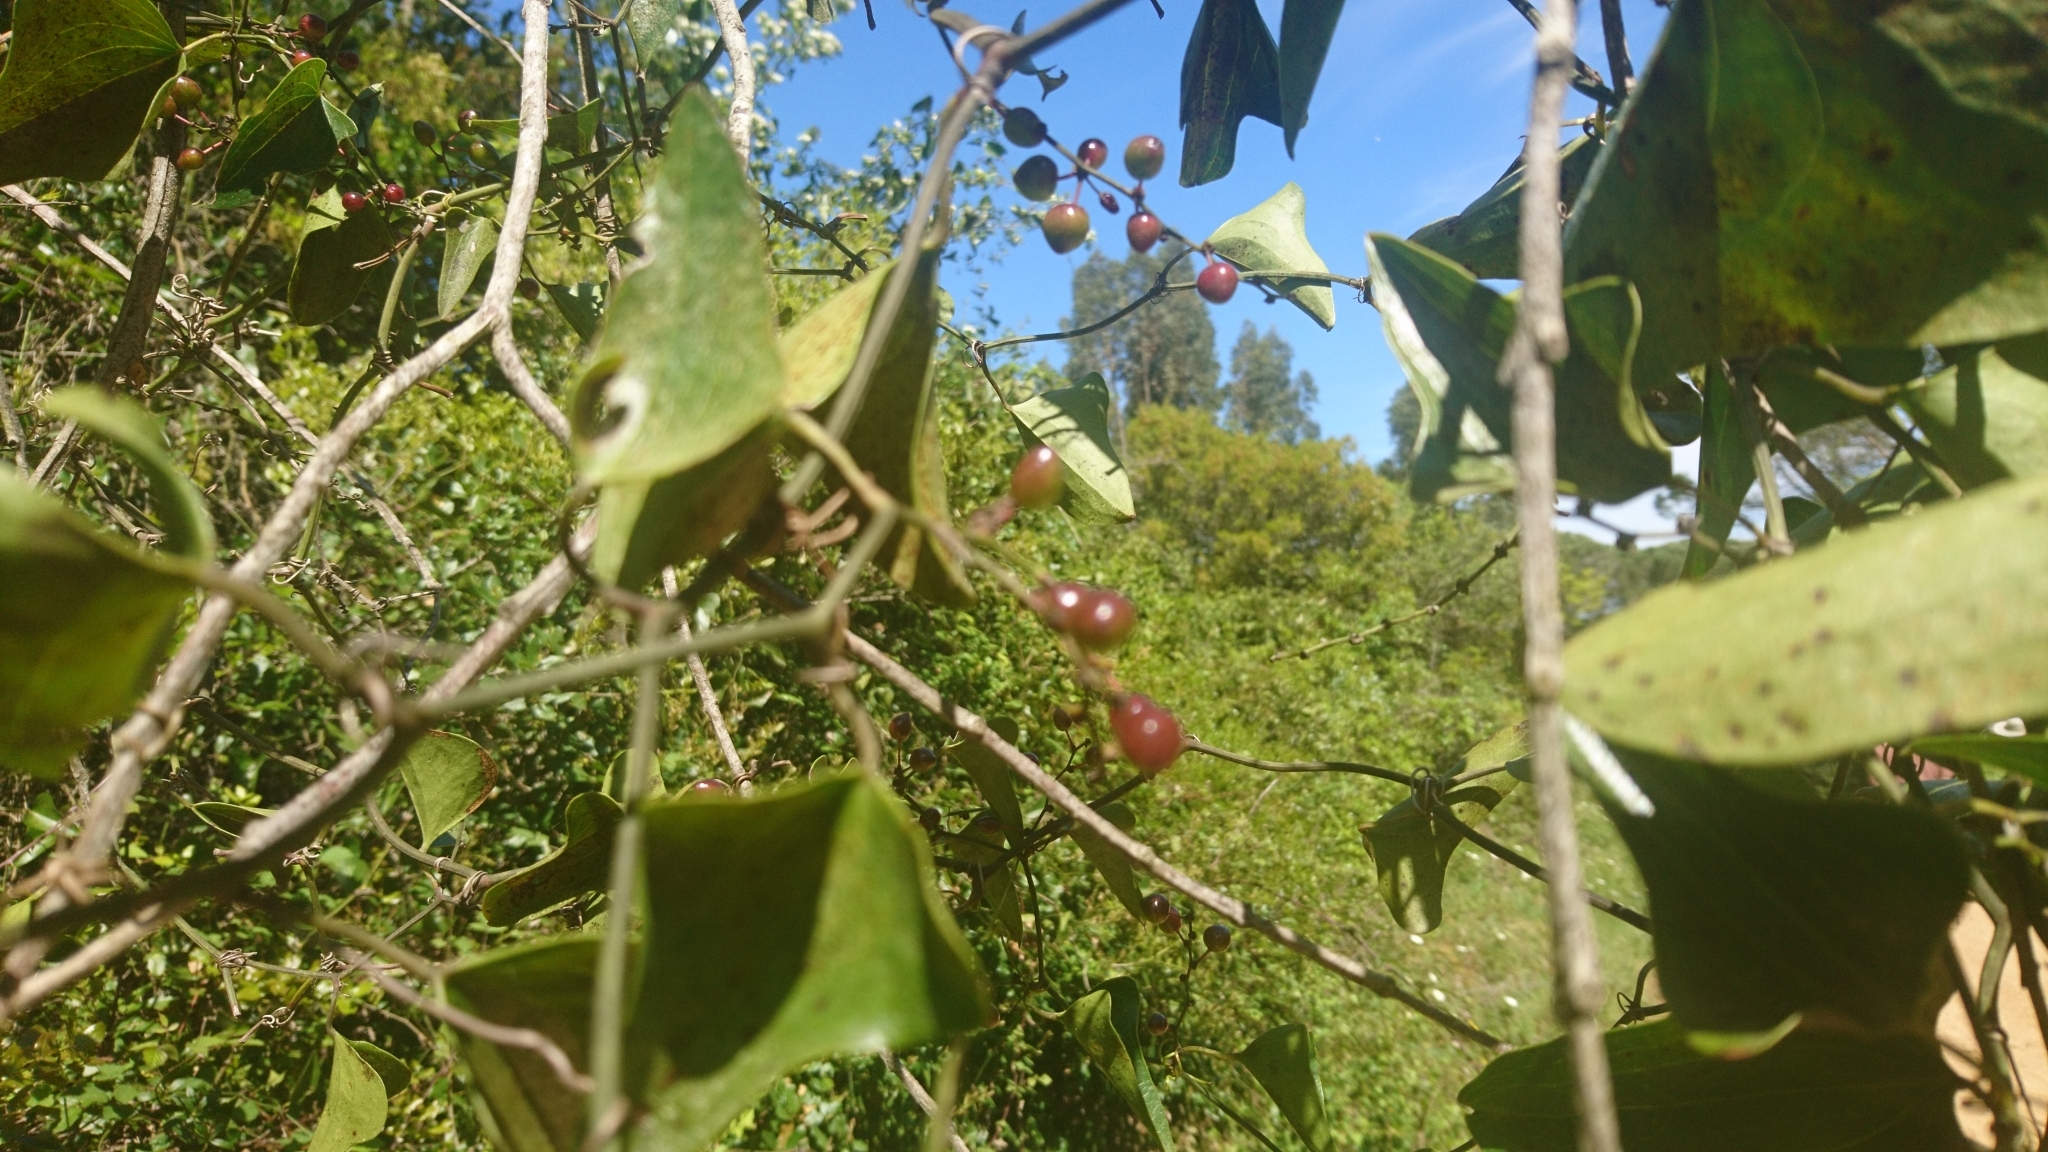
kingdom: Plantae
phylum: Tracheophyta
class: Liliopsida
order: Liliales
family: Smilacaceae
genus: Smilax
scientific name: Smilax aspera
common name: Common smilax
